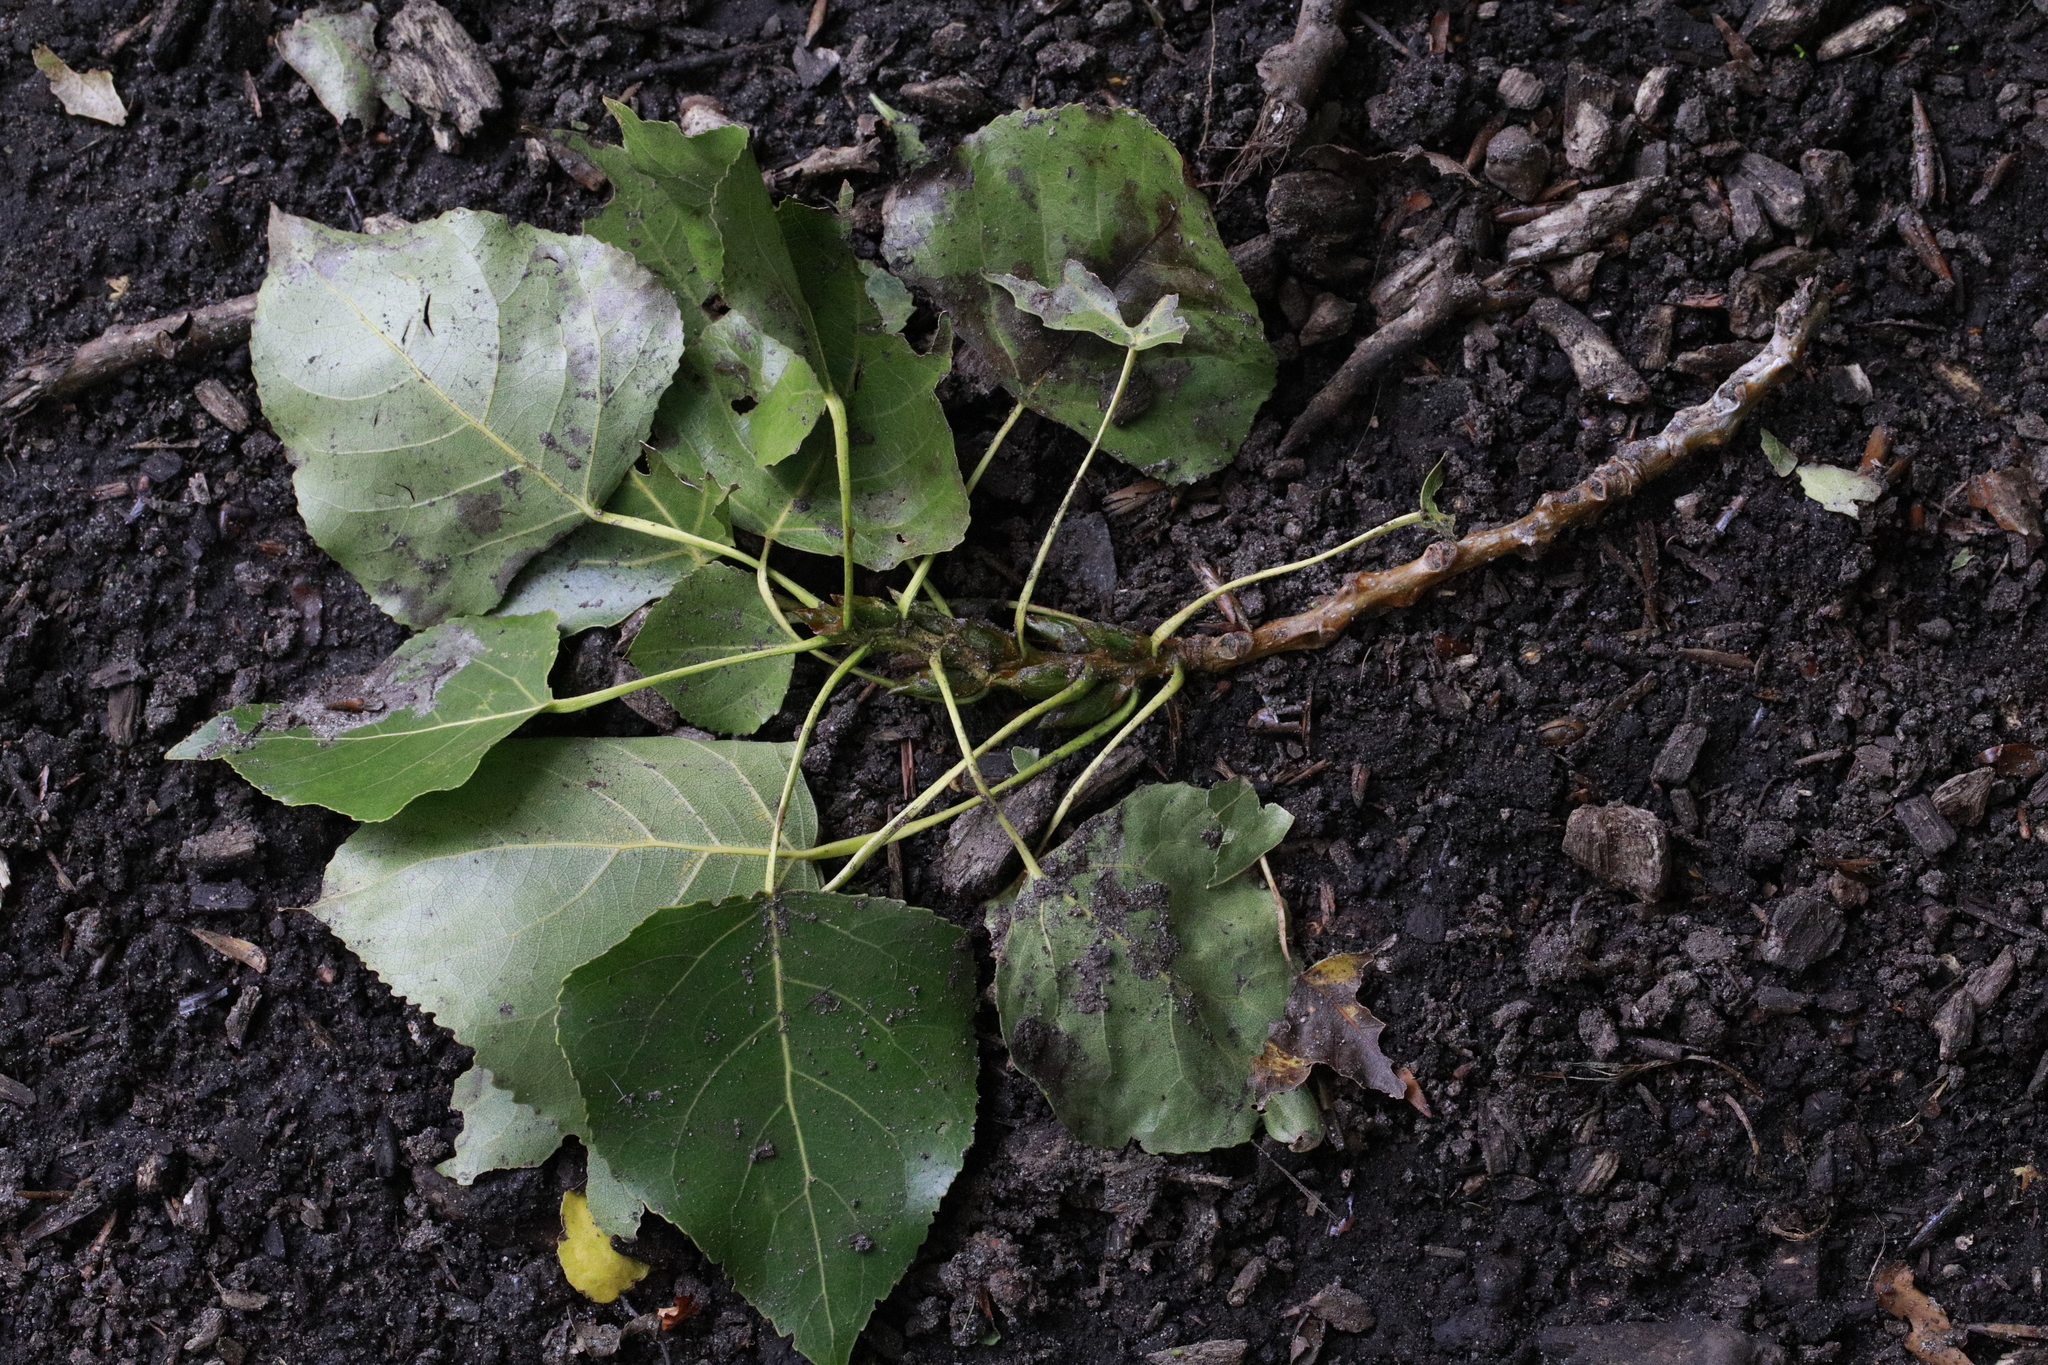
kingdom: Plantae
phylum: Tracheophyta
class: Magnoliopsida
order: Malpighiales
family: Salicaceae
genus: Populus
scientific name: Populus nigra
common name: Black poplar
